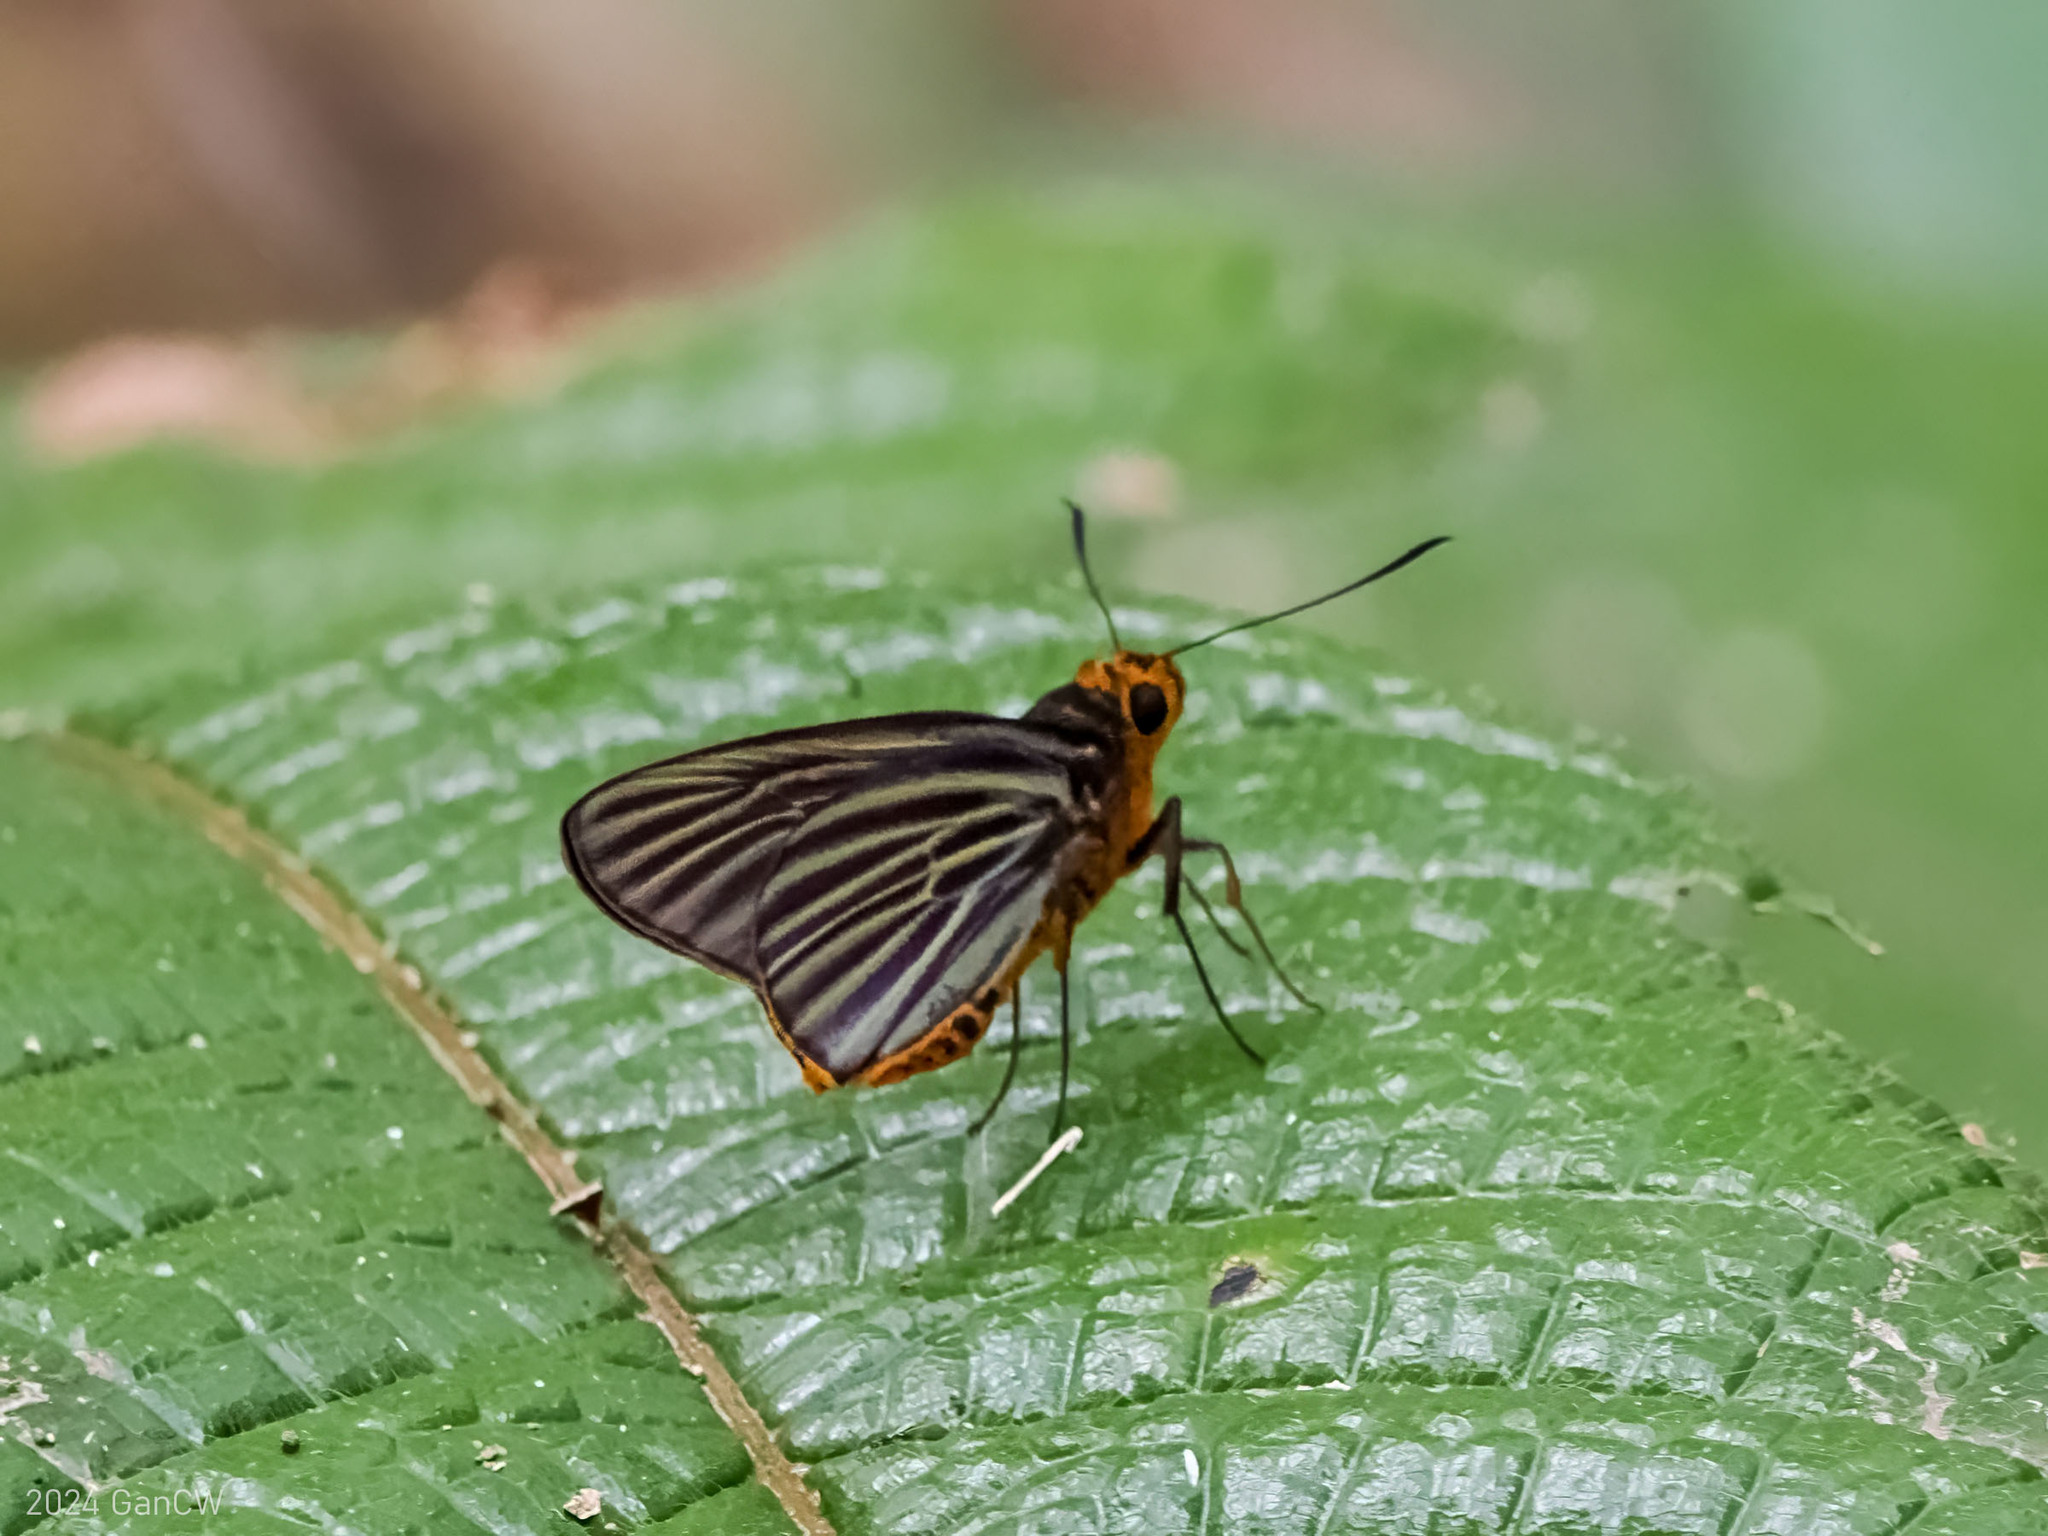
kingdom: Animalia
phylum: Arthropoda
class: Insecta
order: Lepidoptera
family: Hesperiidae
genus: Pirdana
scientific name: Pirdana
